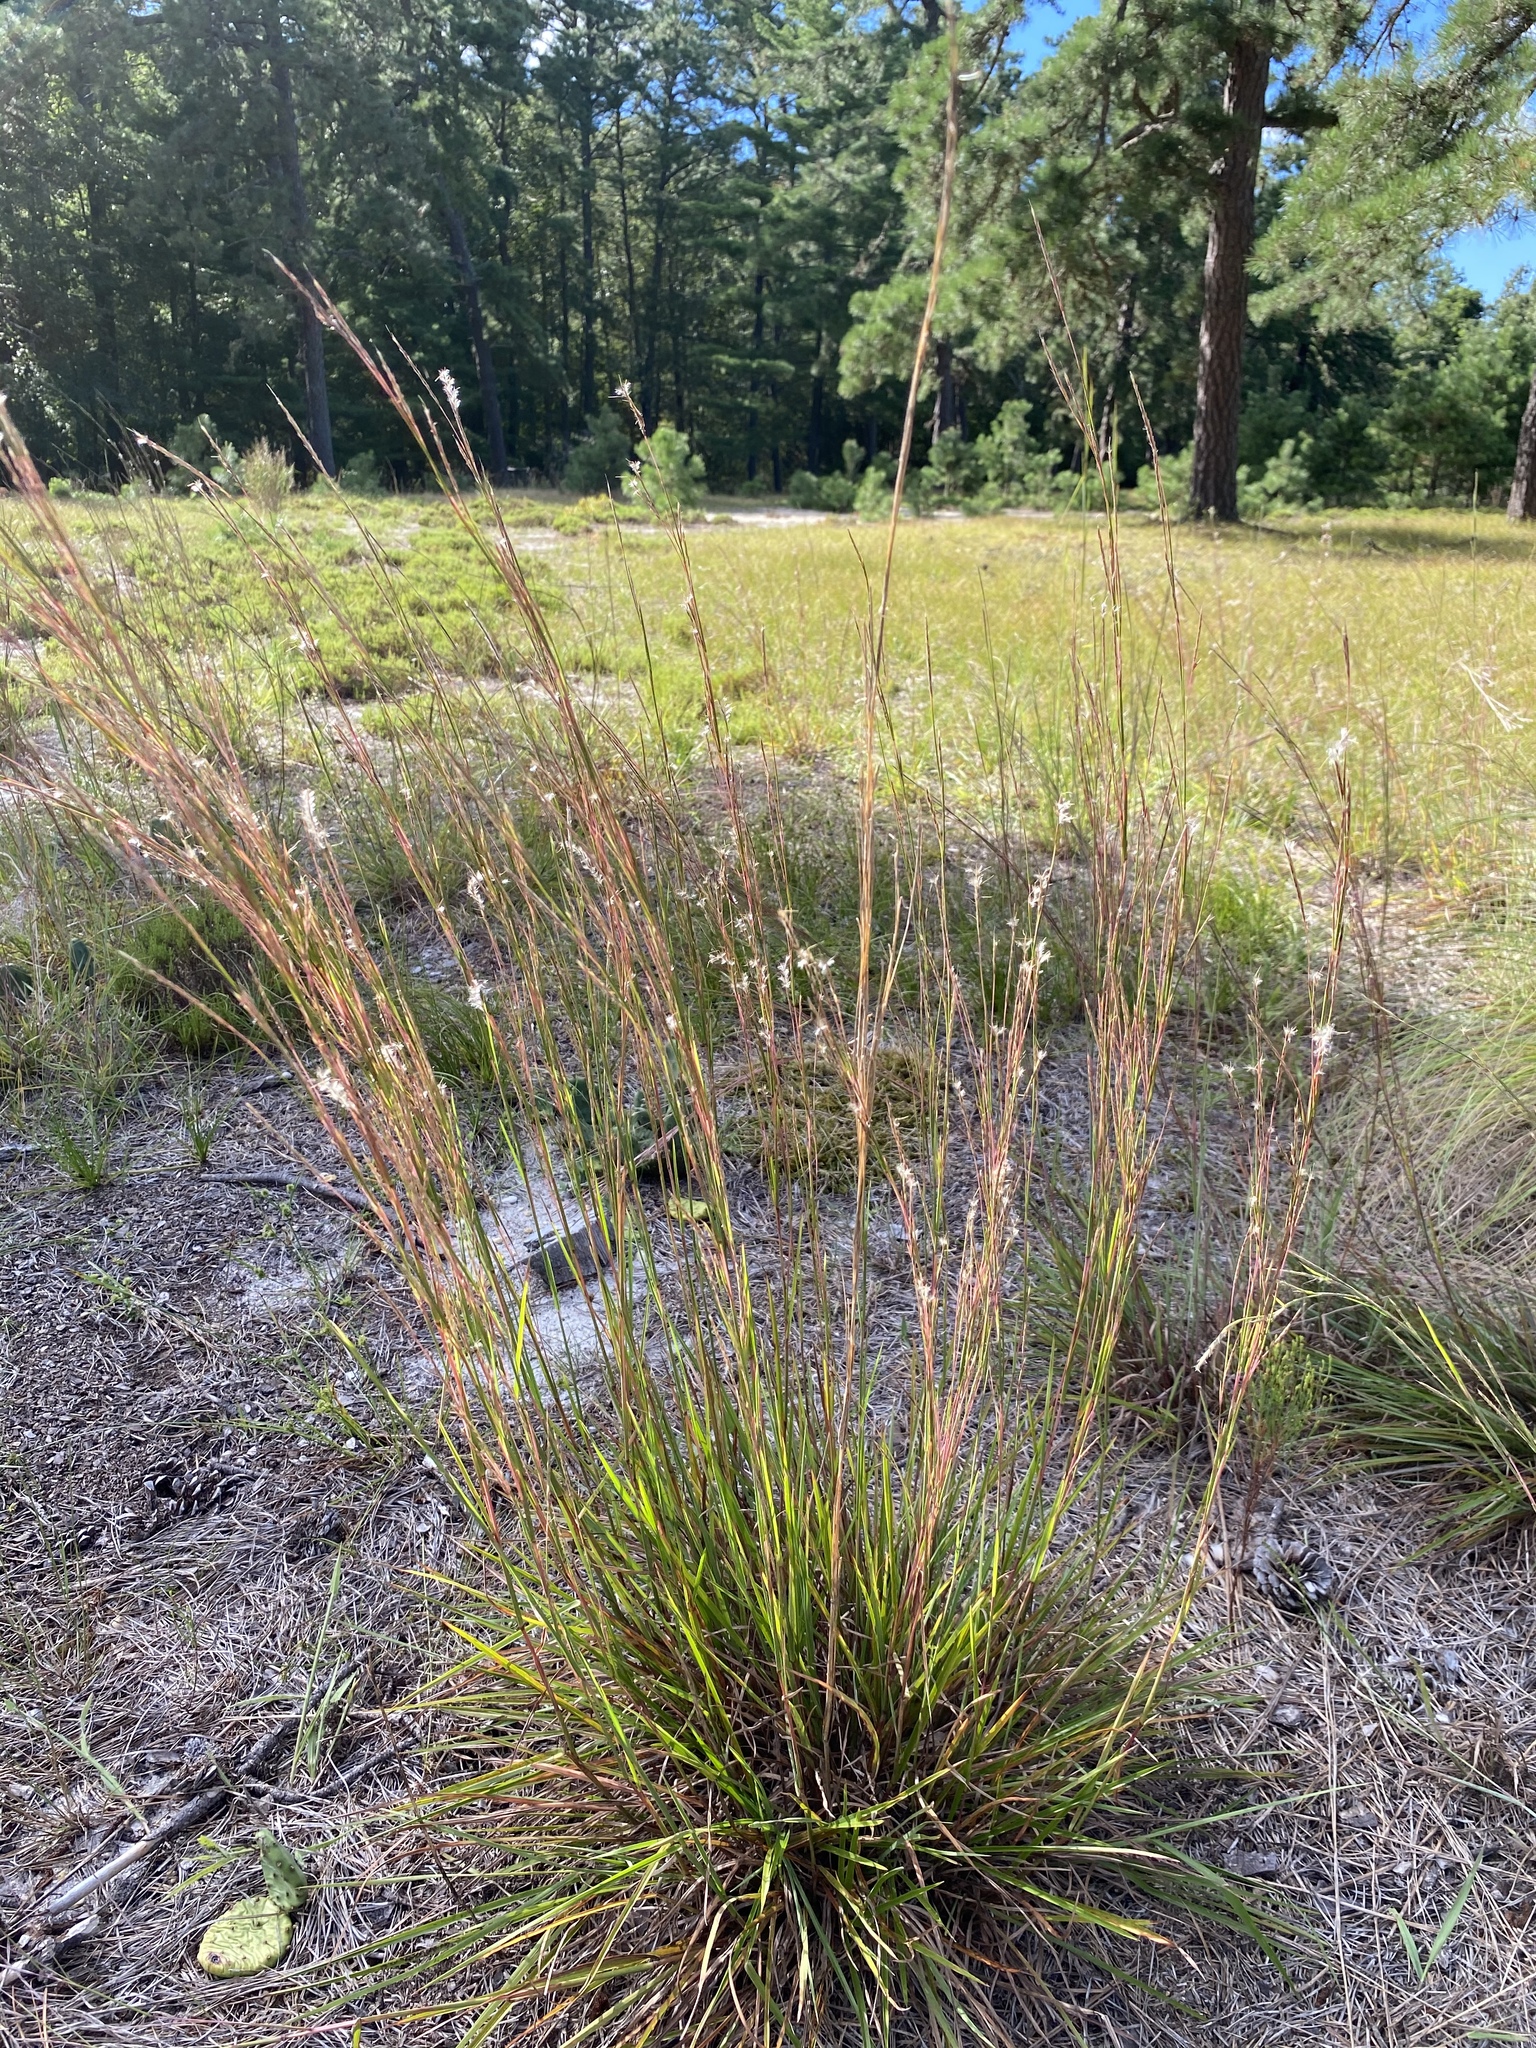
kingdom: Plantae
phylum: Tracheophyta
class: Liliopsida
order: Poales
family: Poaceae
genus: Schizachyrium
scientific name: Schizachyrium scoparium
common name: Little bluestem
